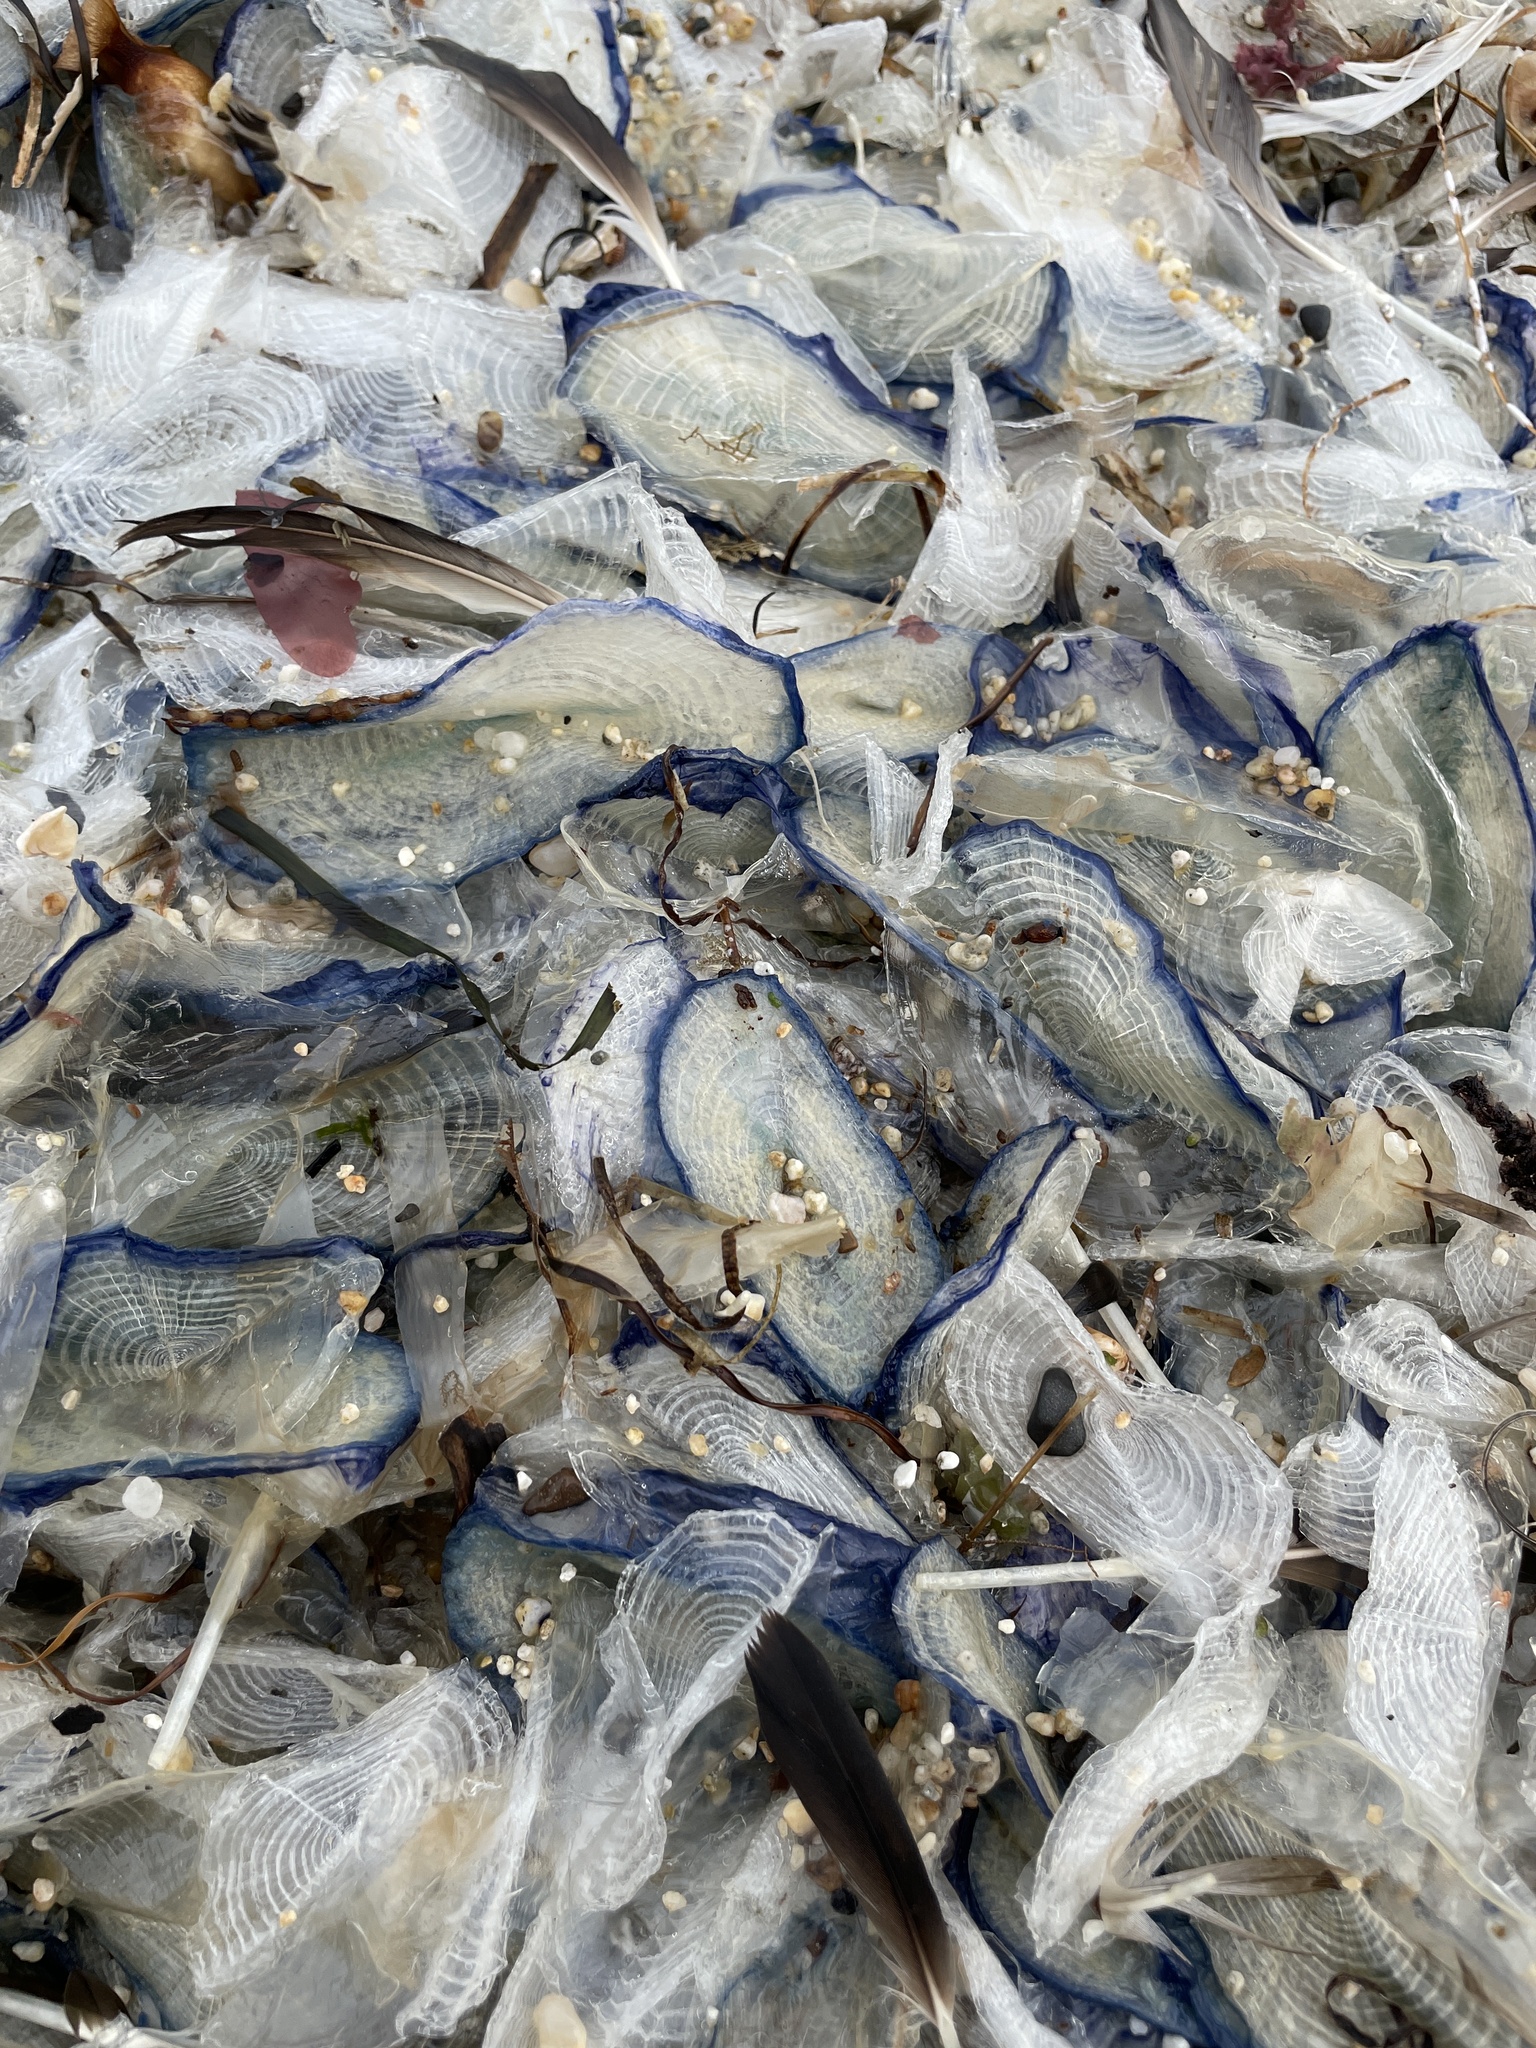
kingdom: Animalia
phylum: Cnidaria
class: Hydrozoa
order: Anthoathecata
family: Porpitidae
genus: Velella
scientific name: Velella velella
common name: By-the-wind-sailor
